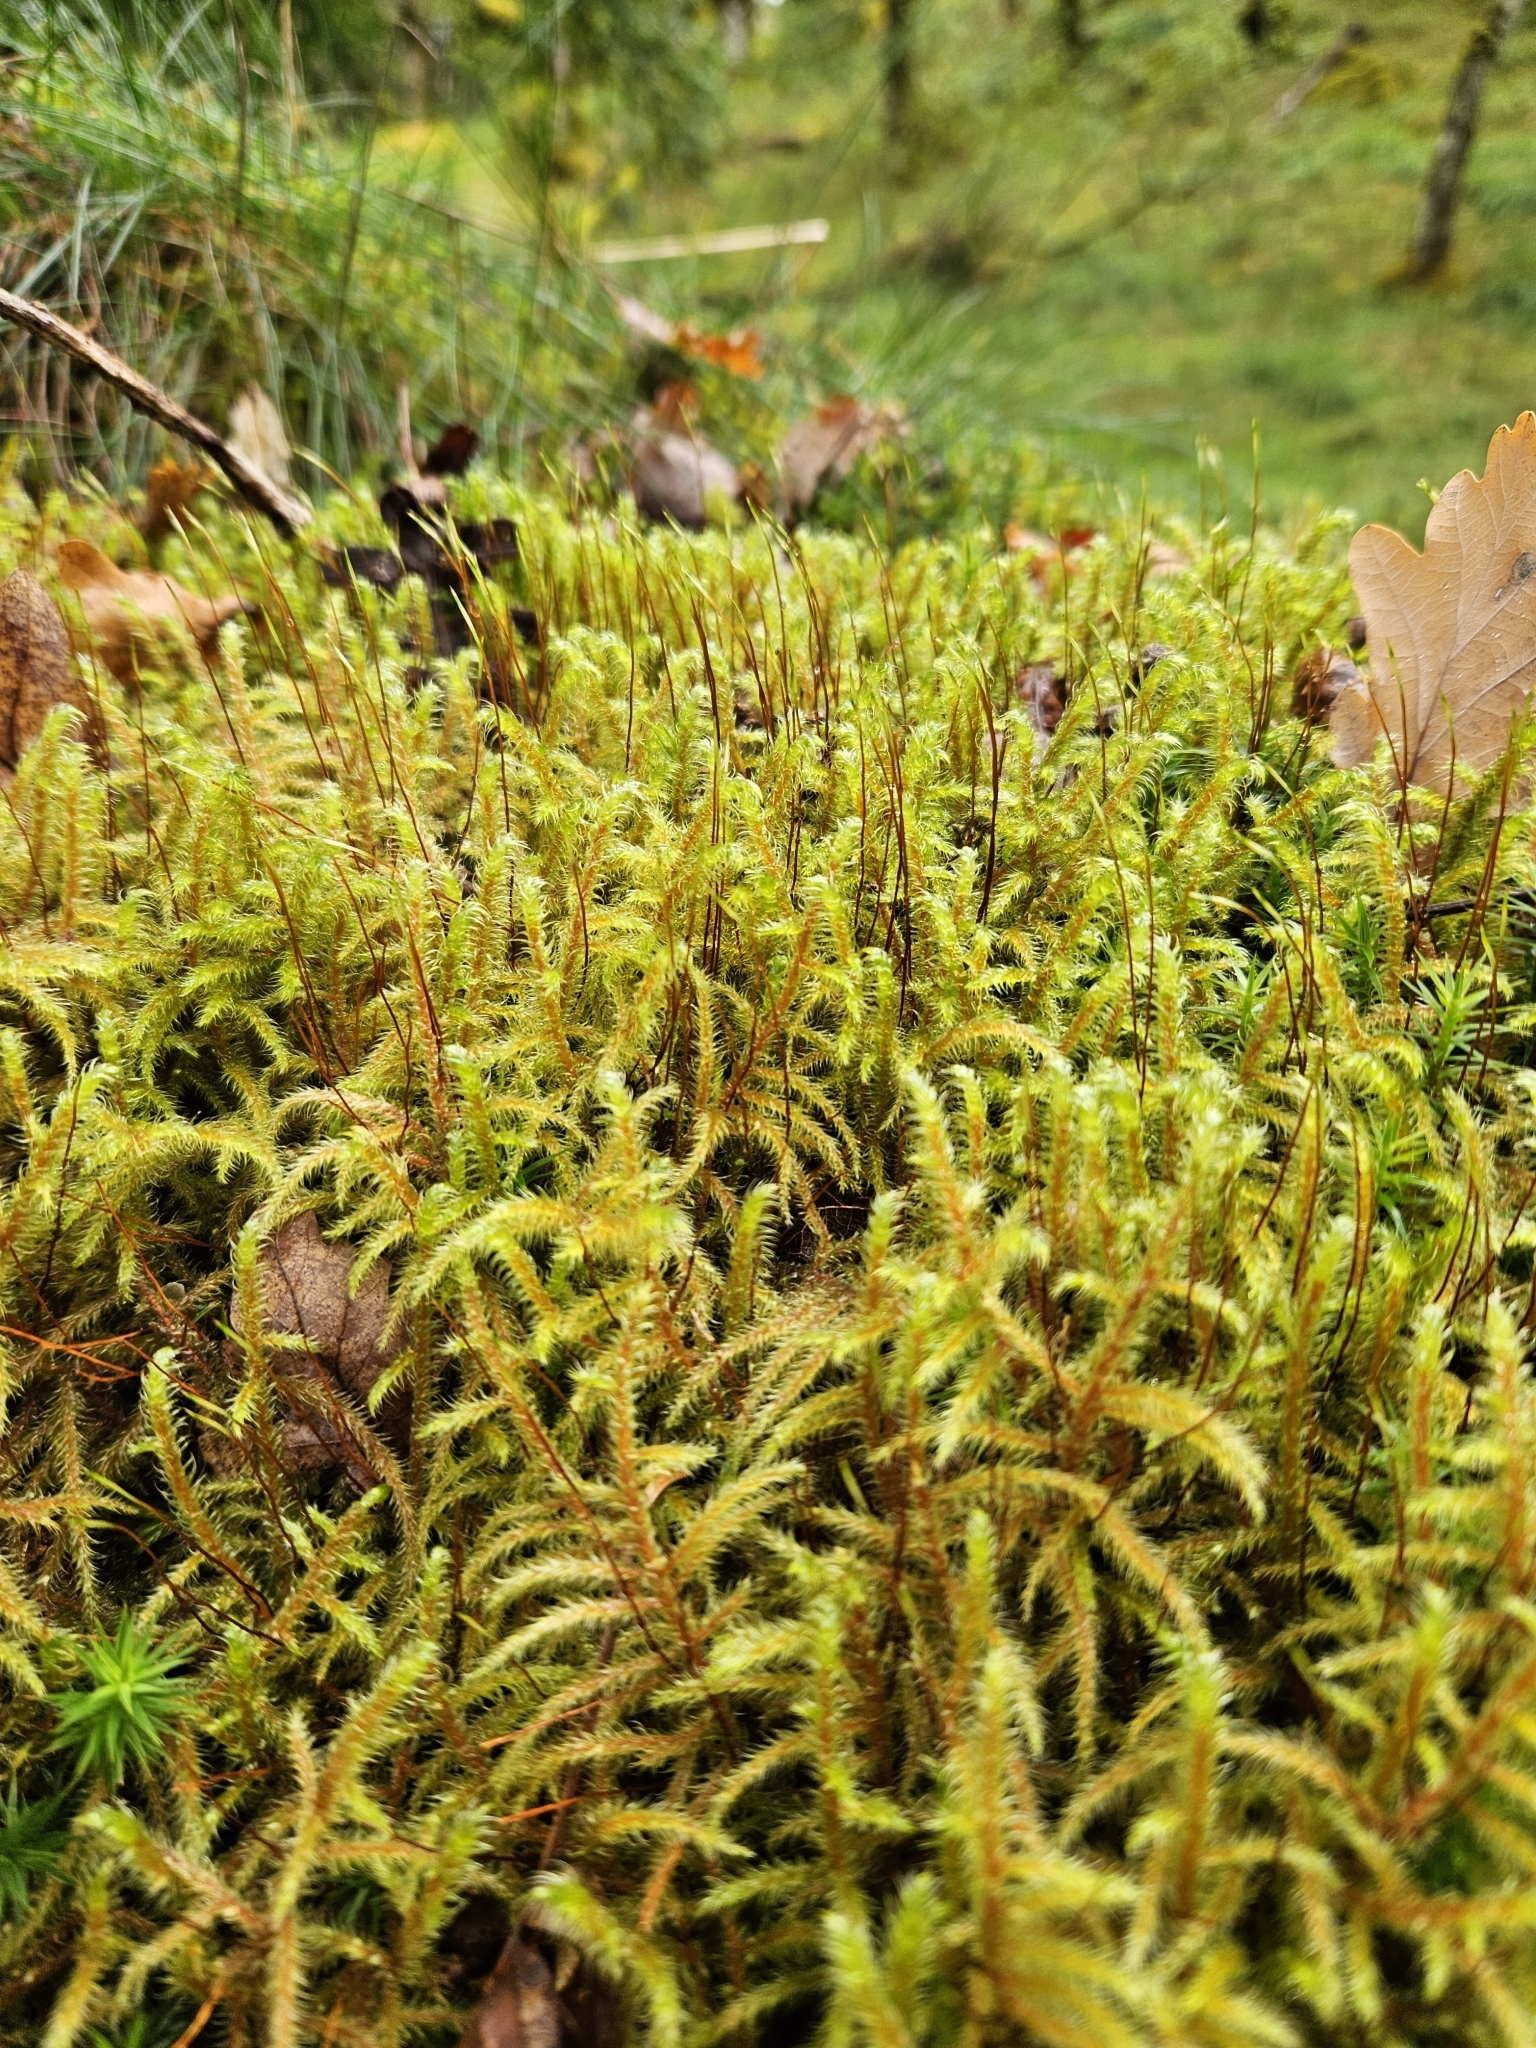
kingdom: Plantae
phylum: Bryophyta
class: Bryopsida
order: Hypnales
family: Hylocomiaceae
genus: Rhytidiadelphus
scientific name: Rhytidiadelphus loreus
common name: Lanky moss
